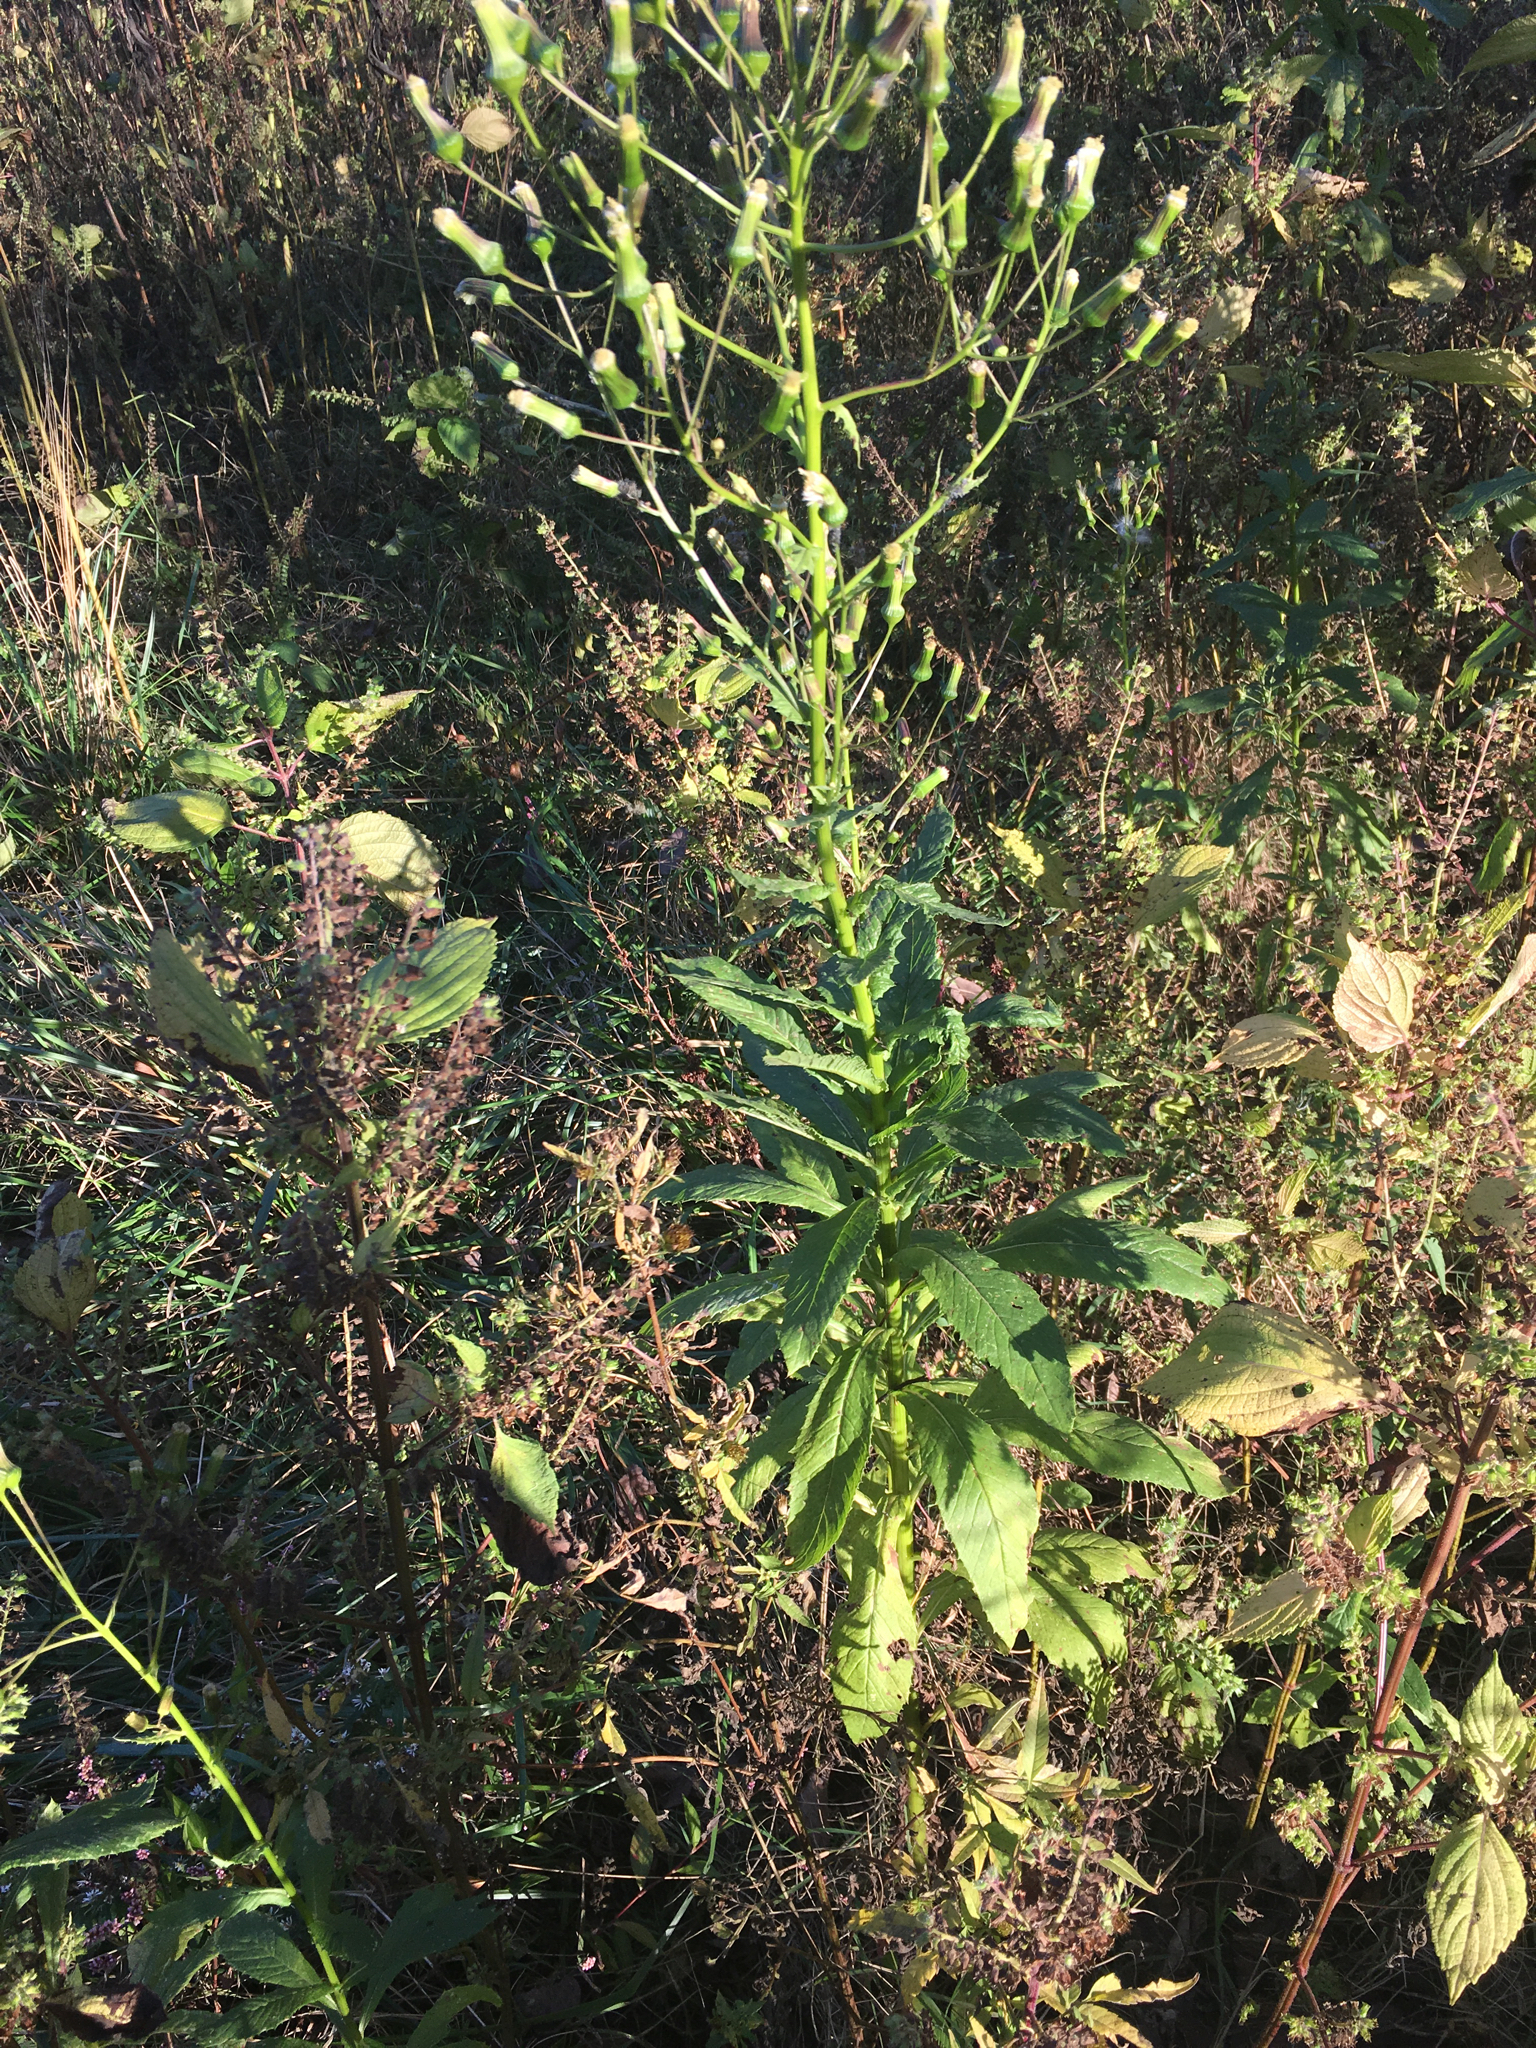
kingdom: Plantae
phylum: Tracheophyta
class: Magnoliopsida
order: Asterales
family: Asteraceae
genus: Erechtites
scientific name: Erechtites hieraciifolius
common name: American burnweed
